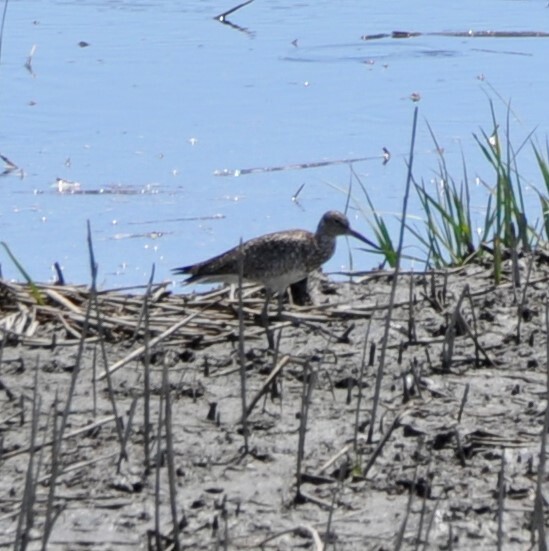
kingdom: Animalia
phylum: Chordata
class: Aves
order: Charadriiformes
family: Scolopacidae
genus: Tringa
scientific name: Tringa semipalmata
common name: Willet
